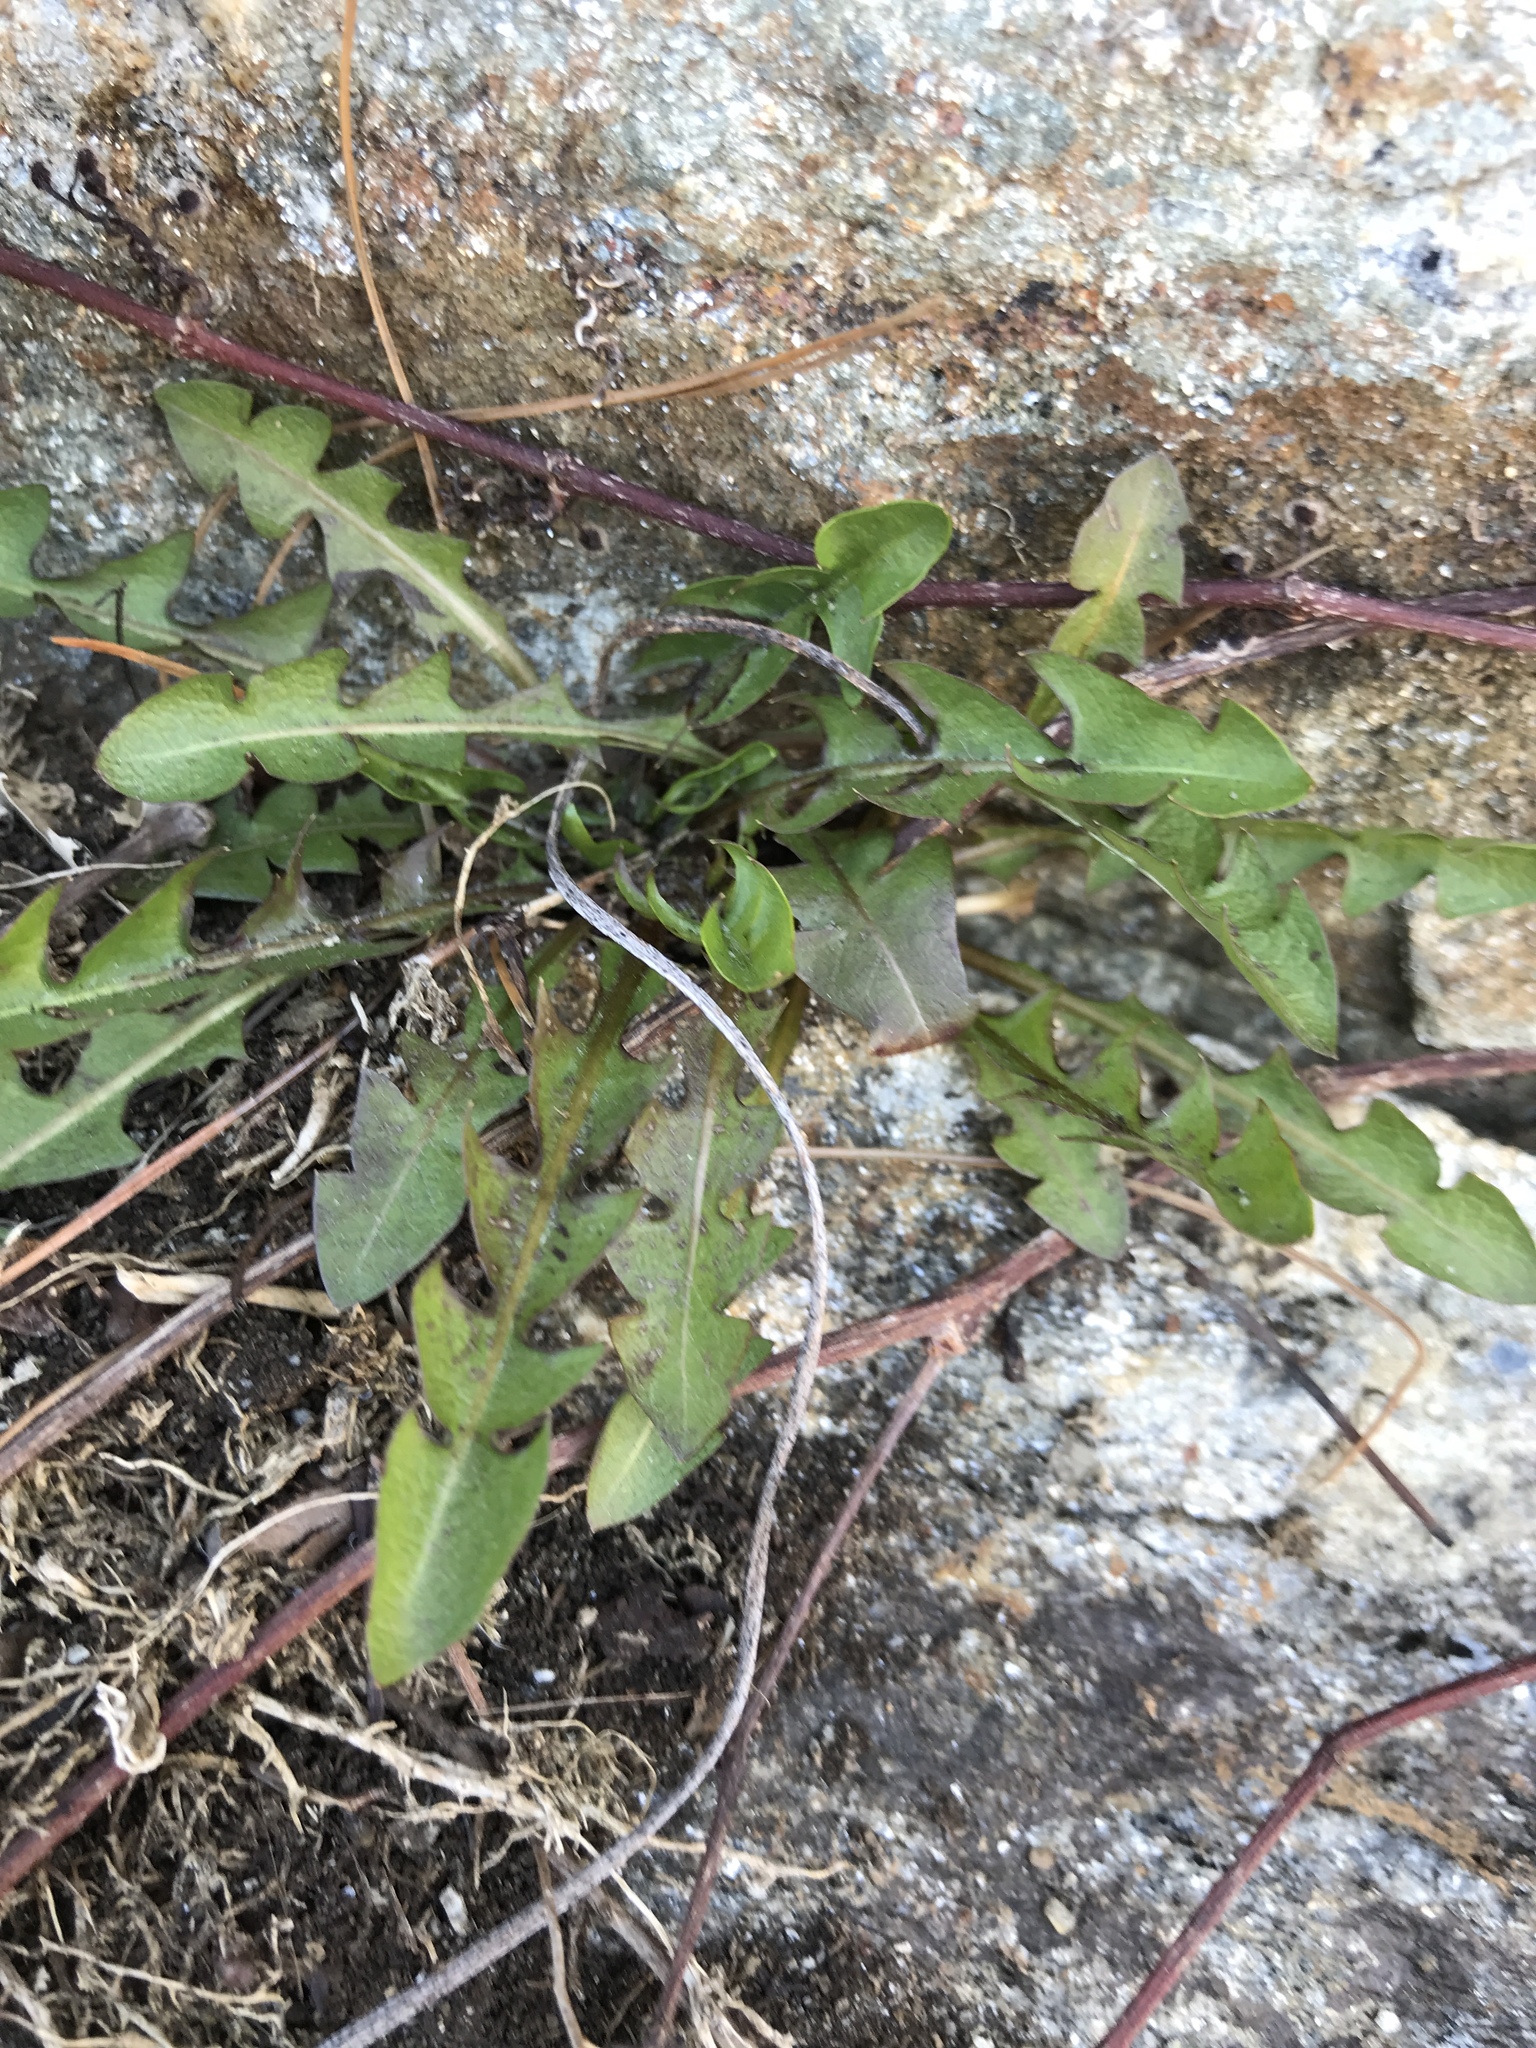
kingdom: Plantae
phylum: Tracheophyta
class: Magnoliopsida
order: Asterales
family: Asteraceae
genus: Taraxacum
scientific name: Taraxacum officinale
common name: Common dandelion
